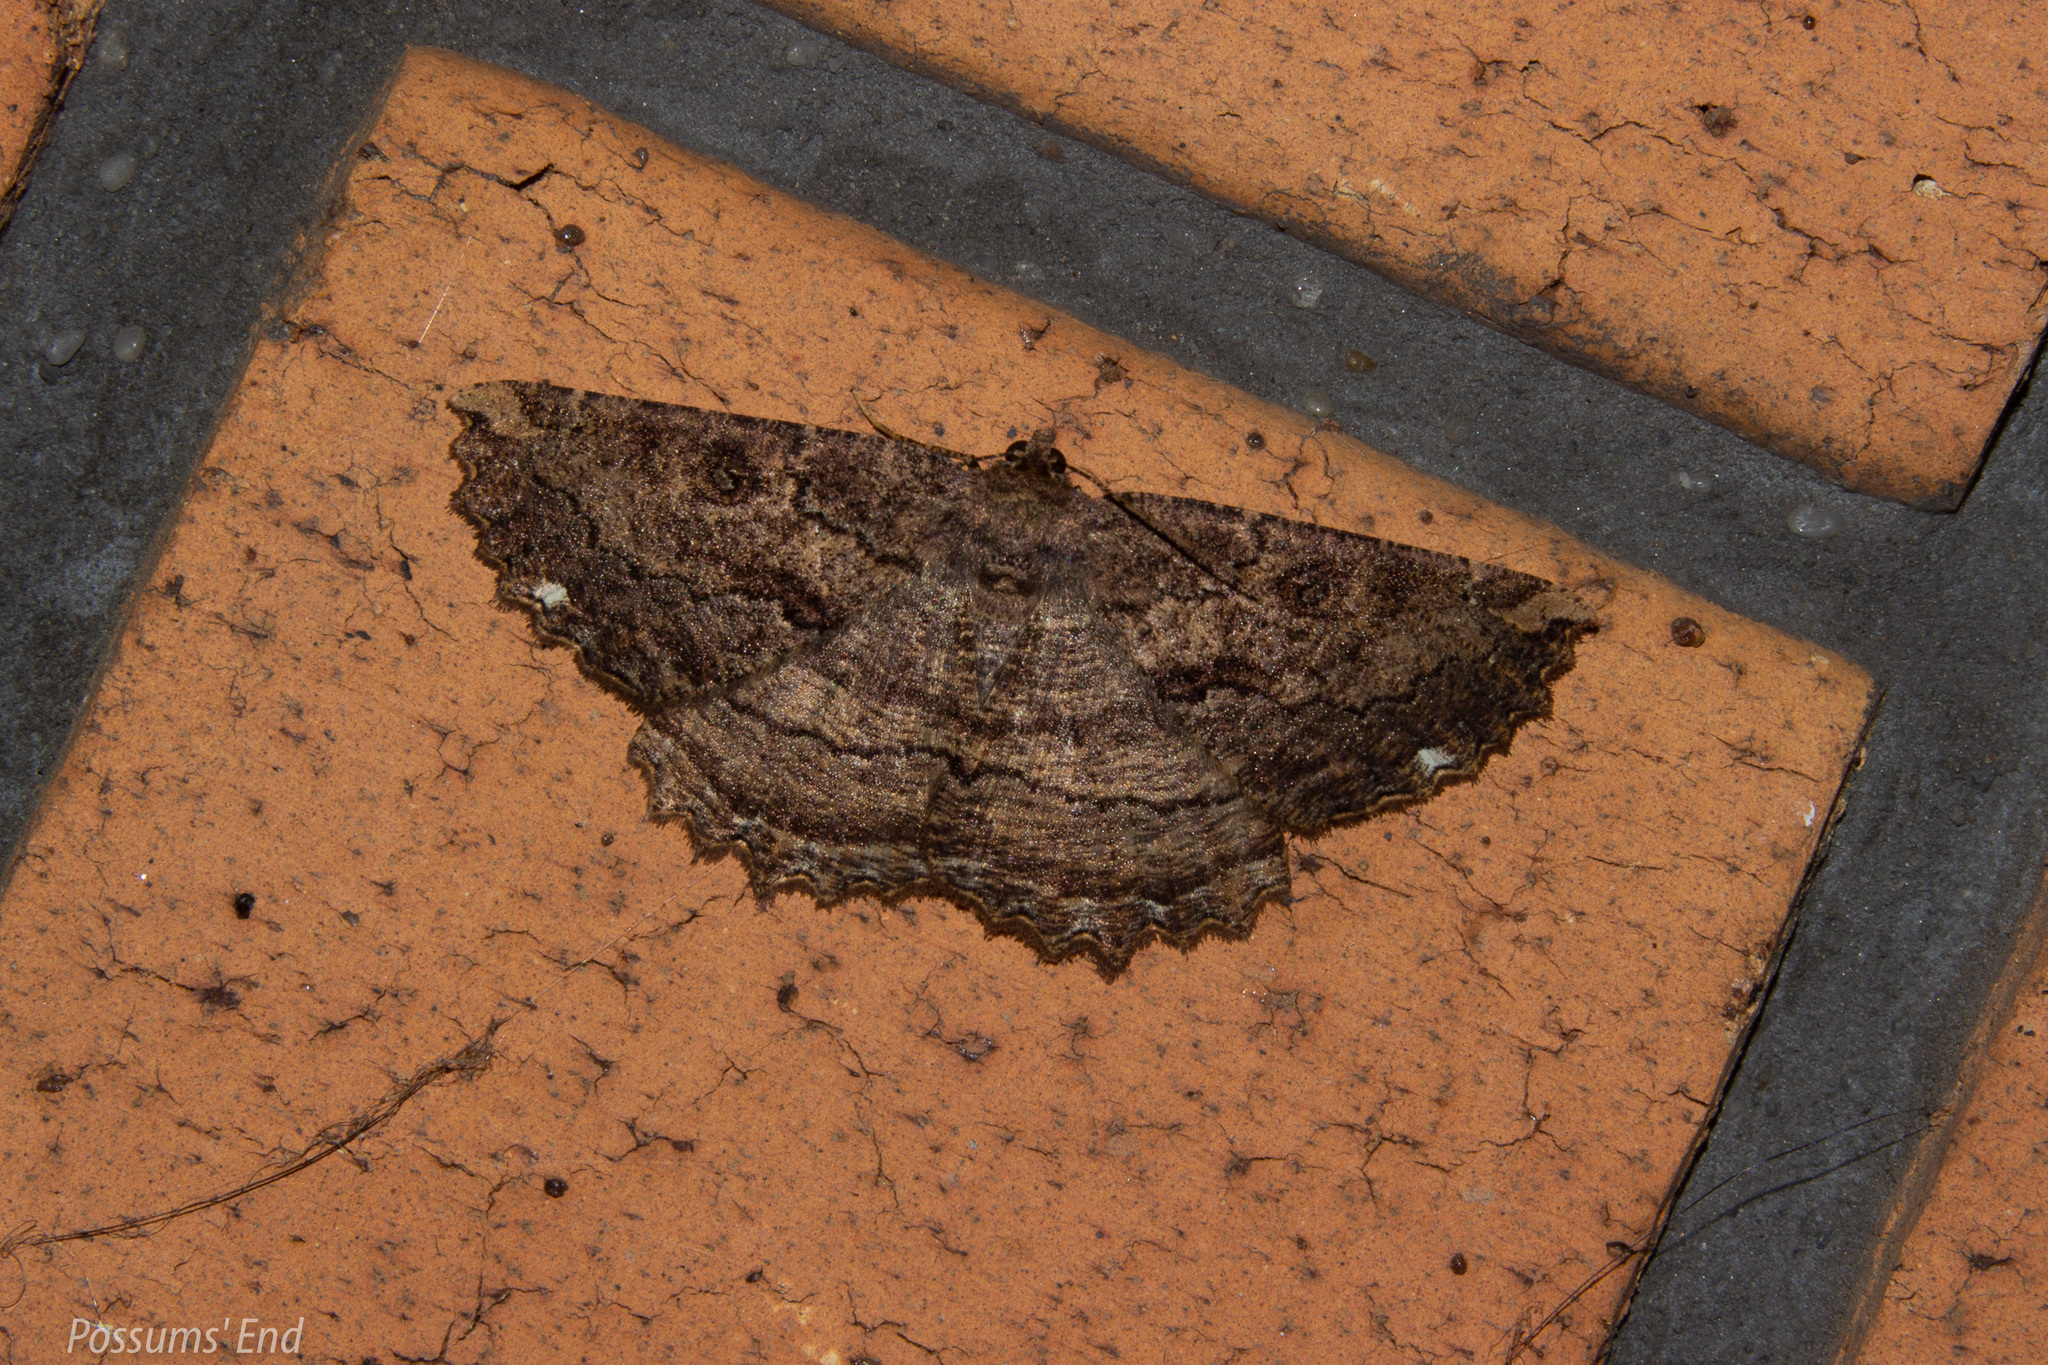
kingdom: Animalia
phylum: Arthropoda
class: Insecta
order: Lepidoptera
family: Geometridae
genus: Gellonia
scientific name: Gellonia dejectaria
